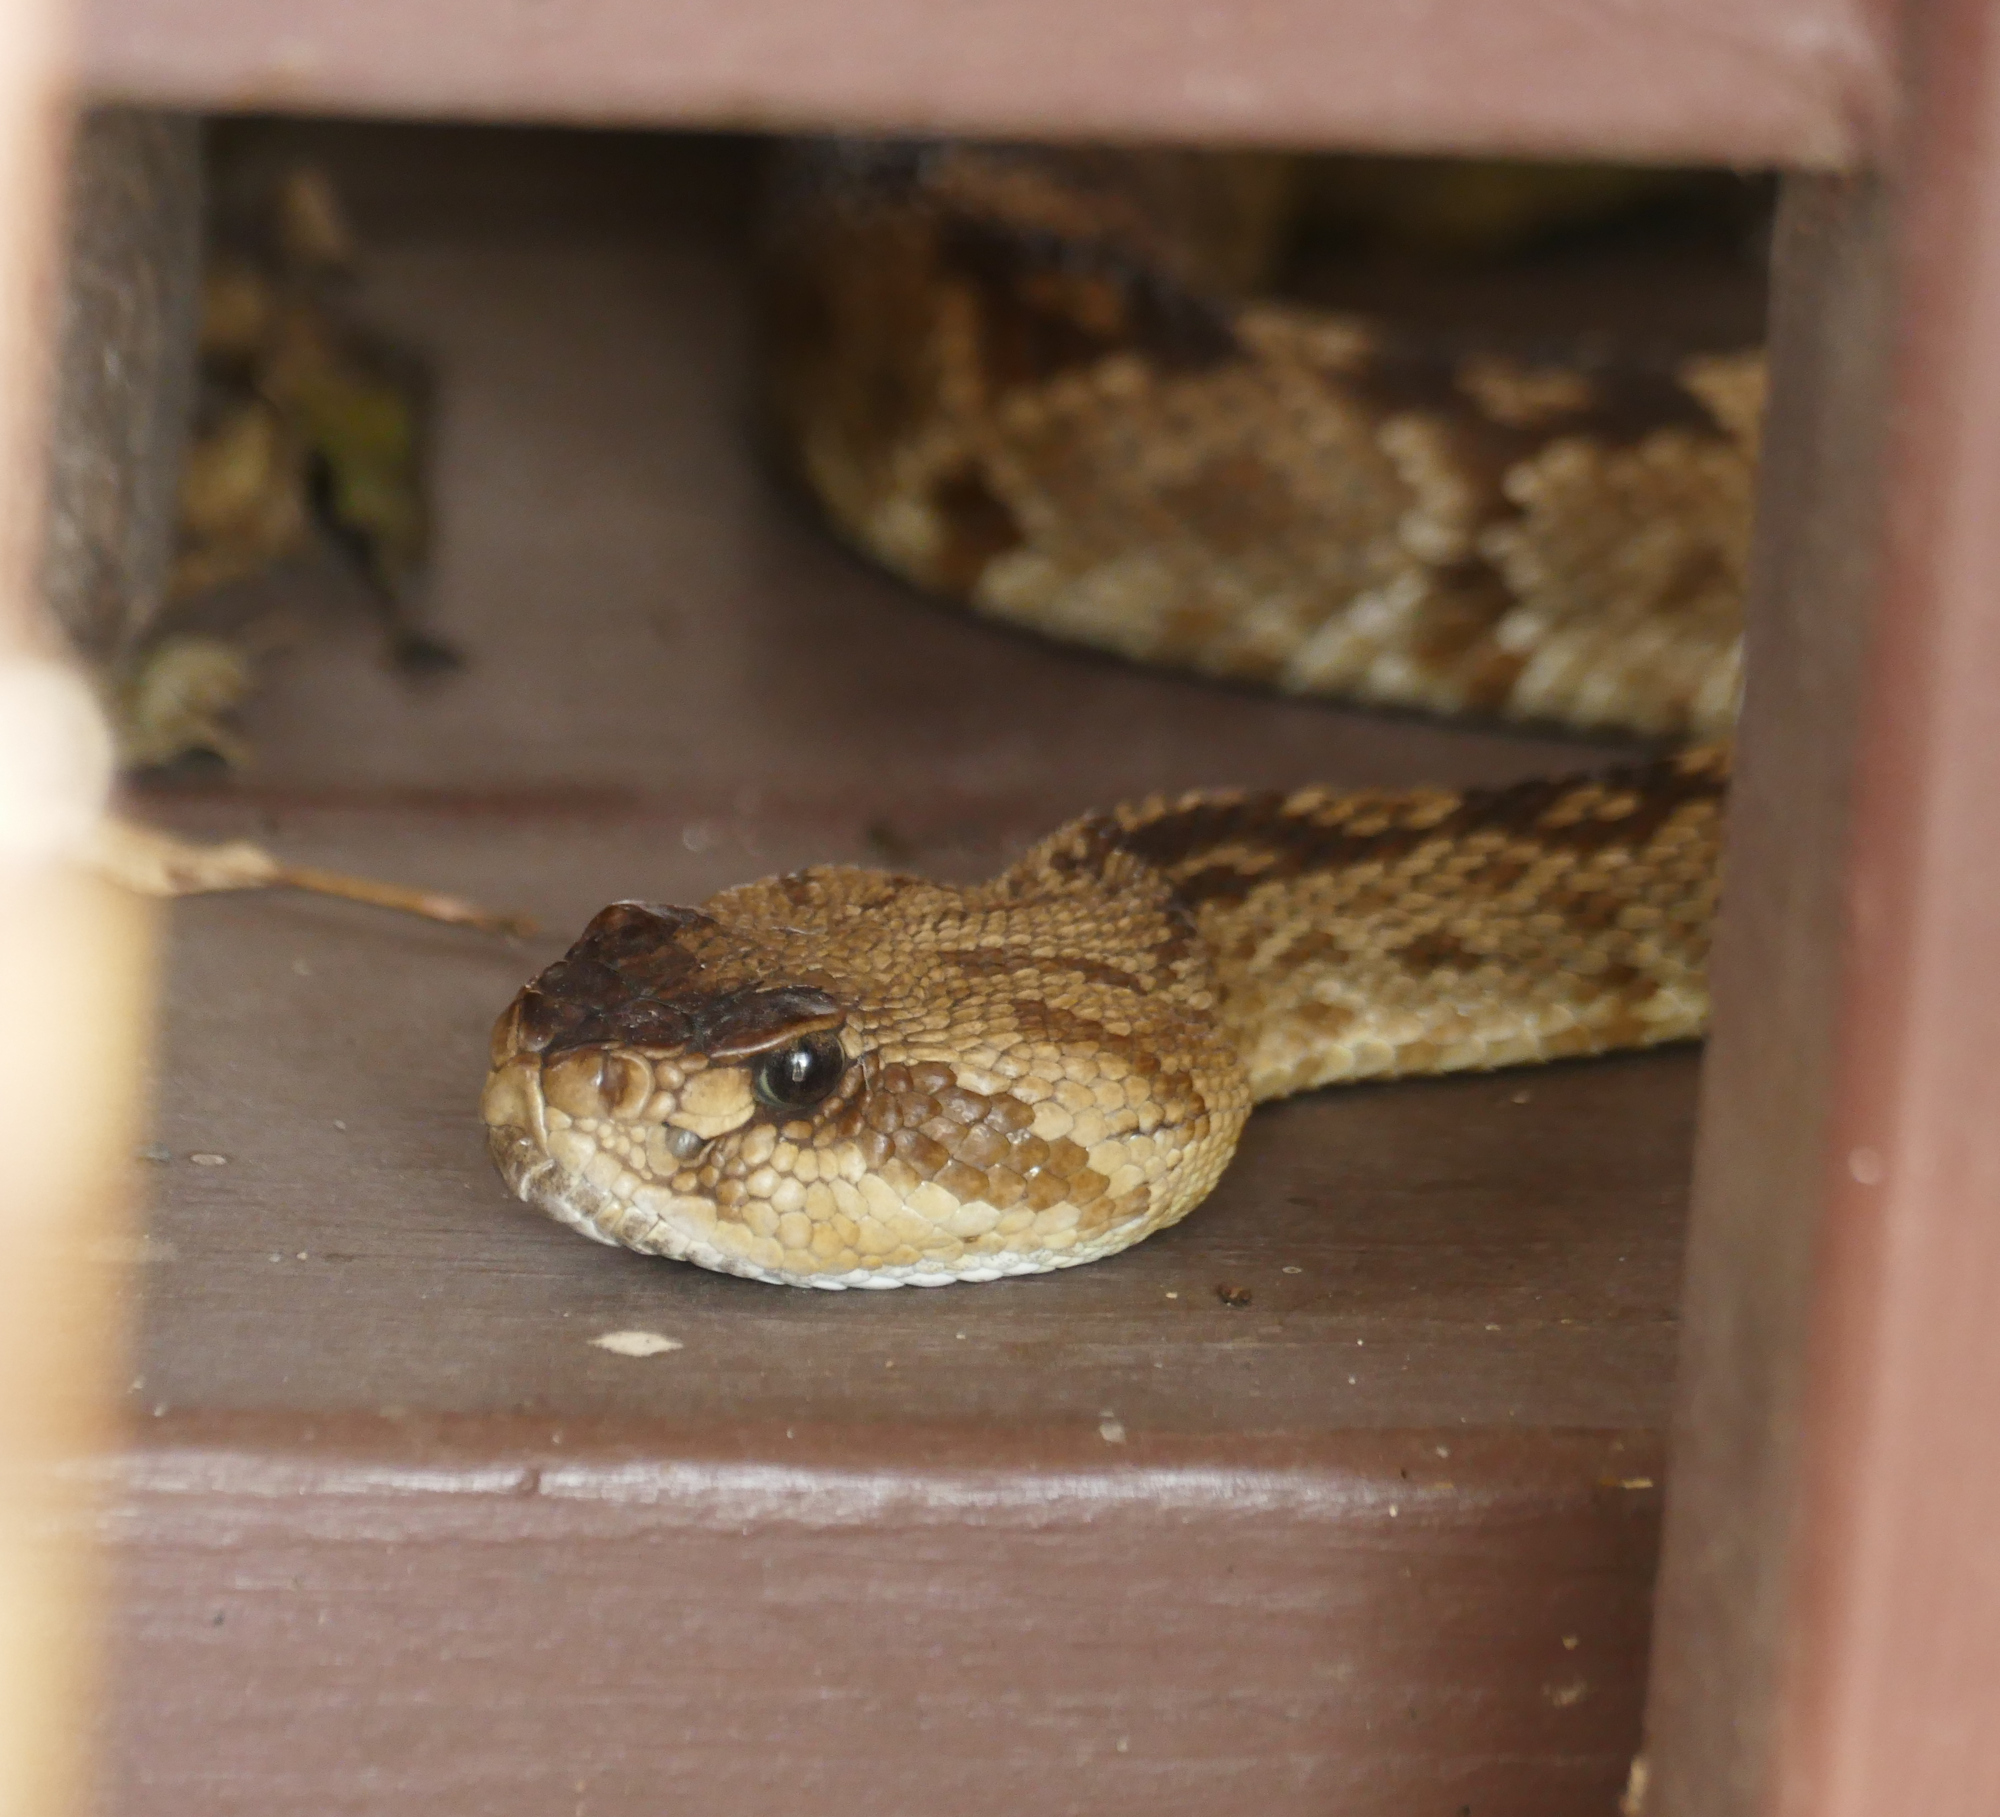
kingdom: Animalia
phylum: Chordata
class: Squamata
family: Viperidae
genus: Crotalus
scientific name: Crotalus molossus
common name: Black tailed rattlesnake
